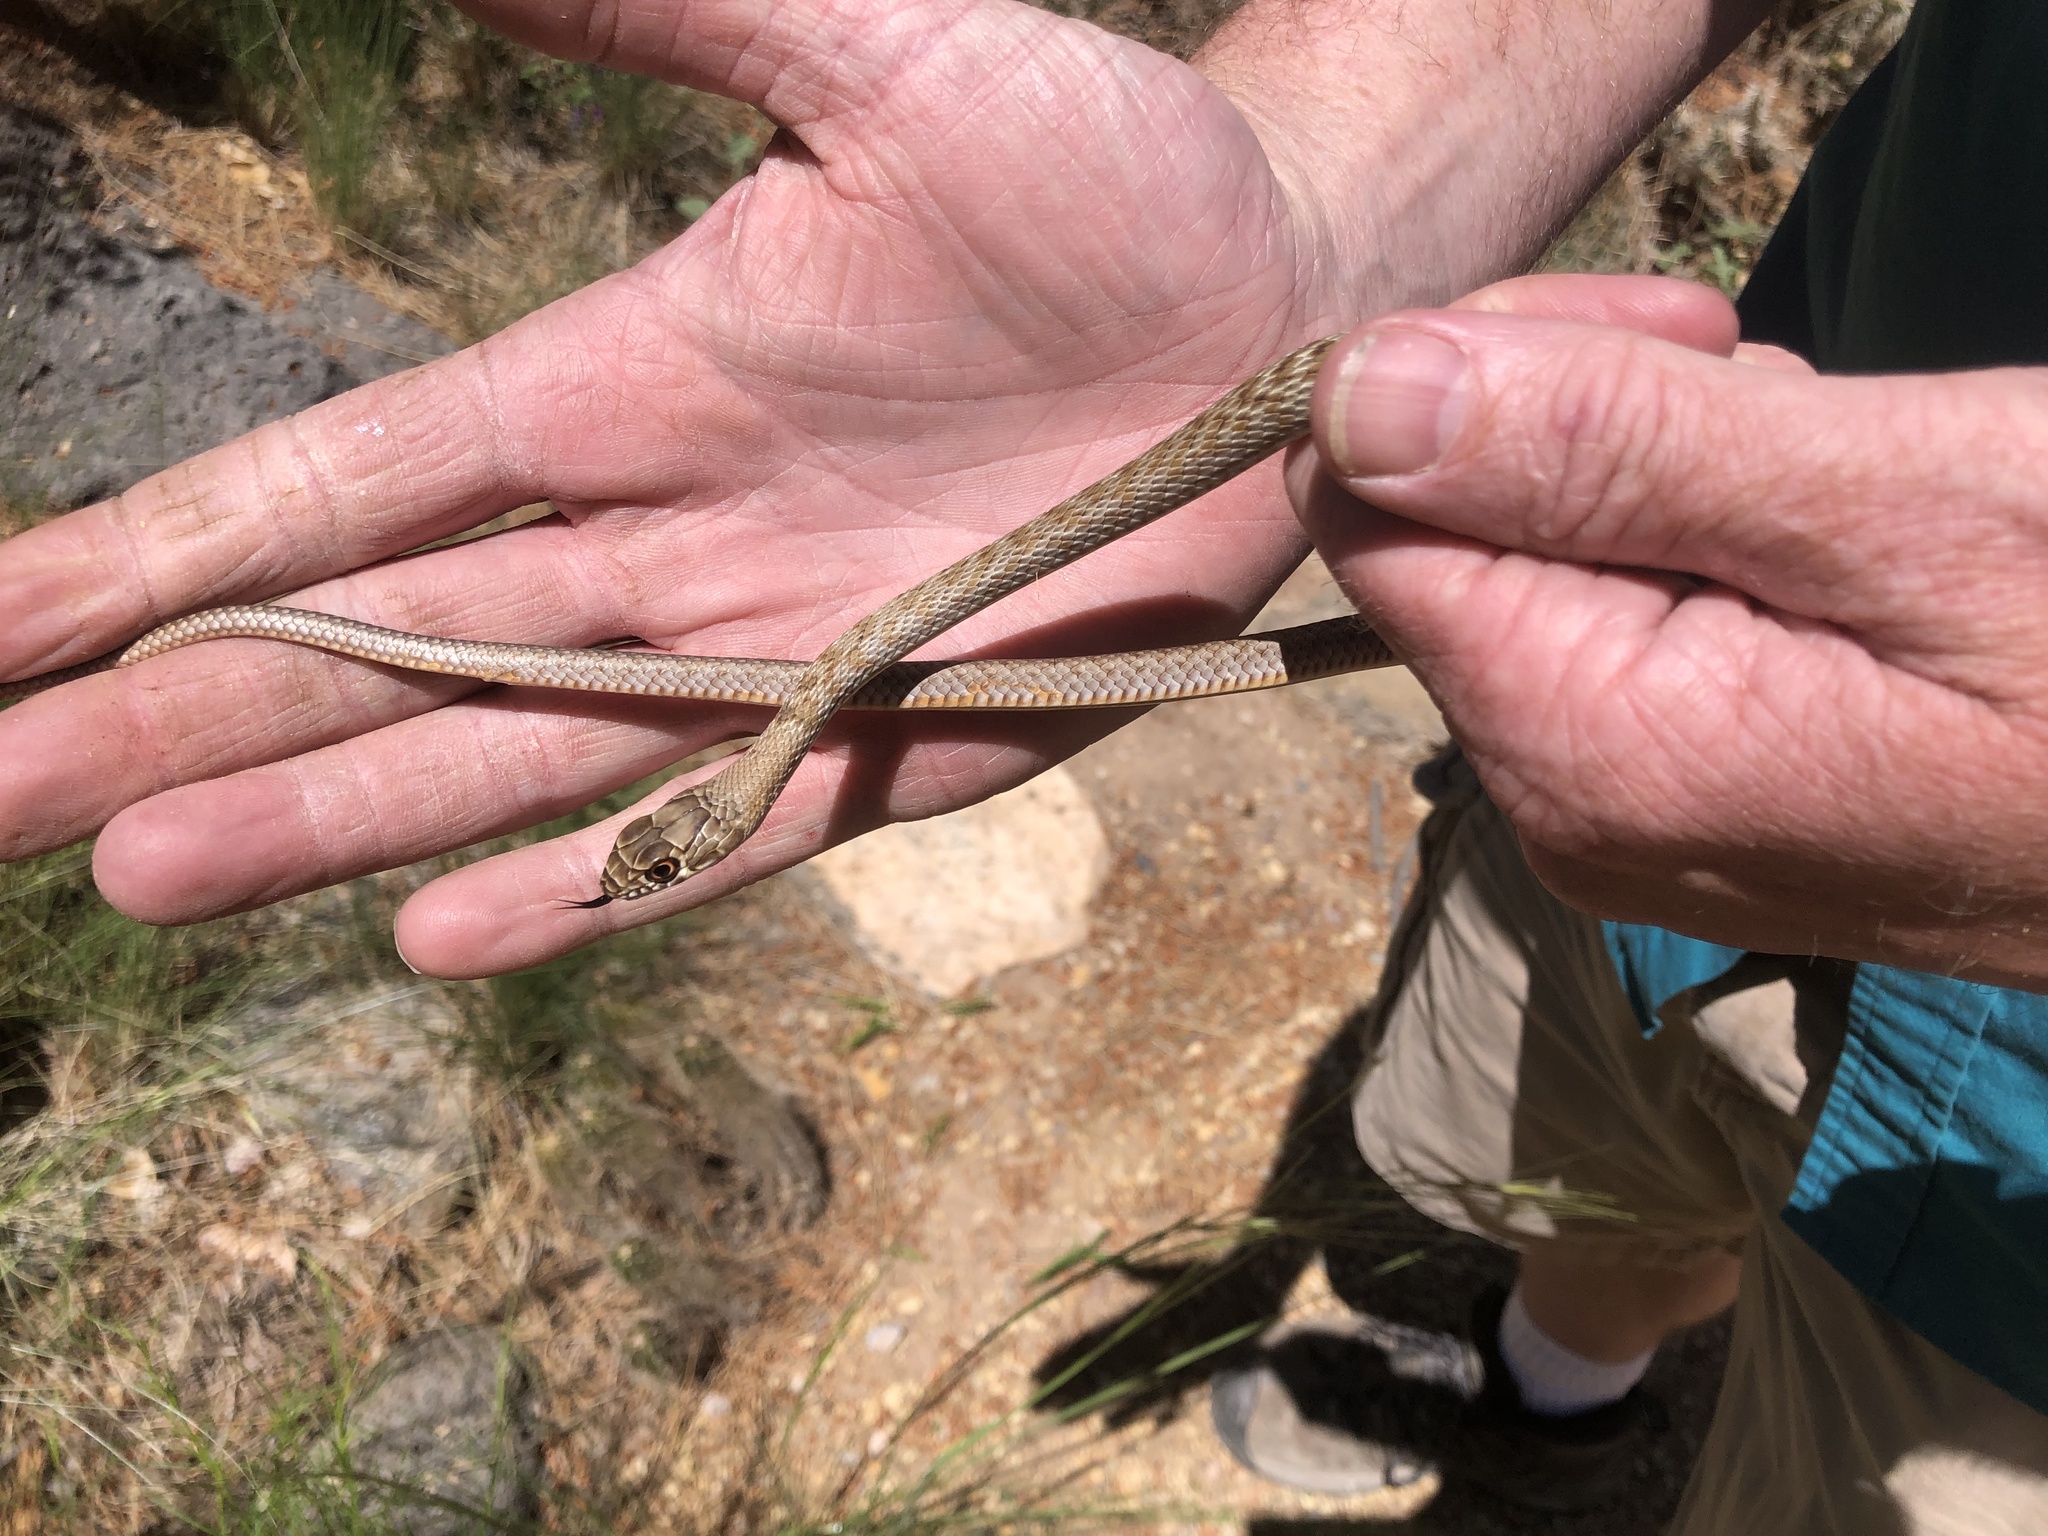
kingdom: Animalia
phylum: Chordata
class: Squamata
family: Colubridae
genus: Masticophis
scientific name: Masticophis flagellum
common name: Coachwhip
